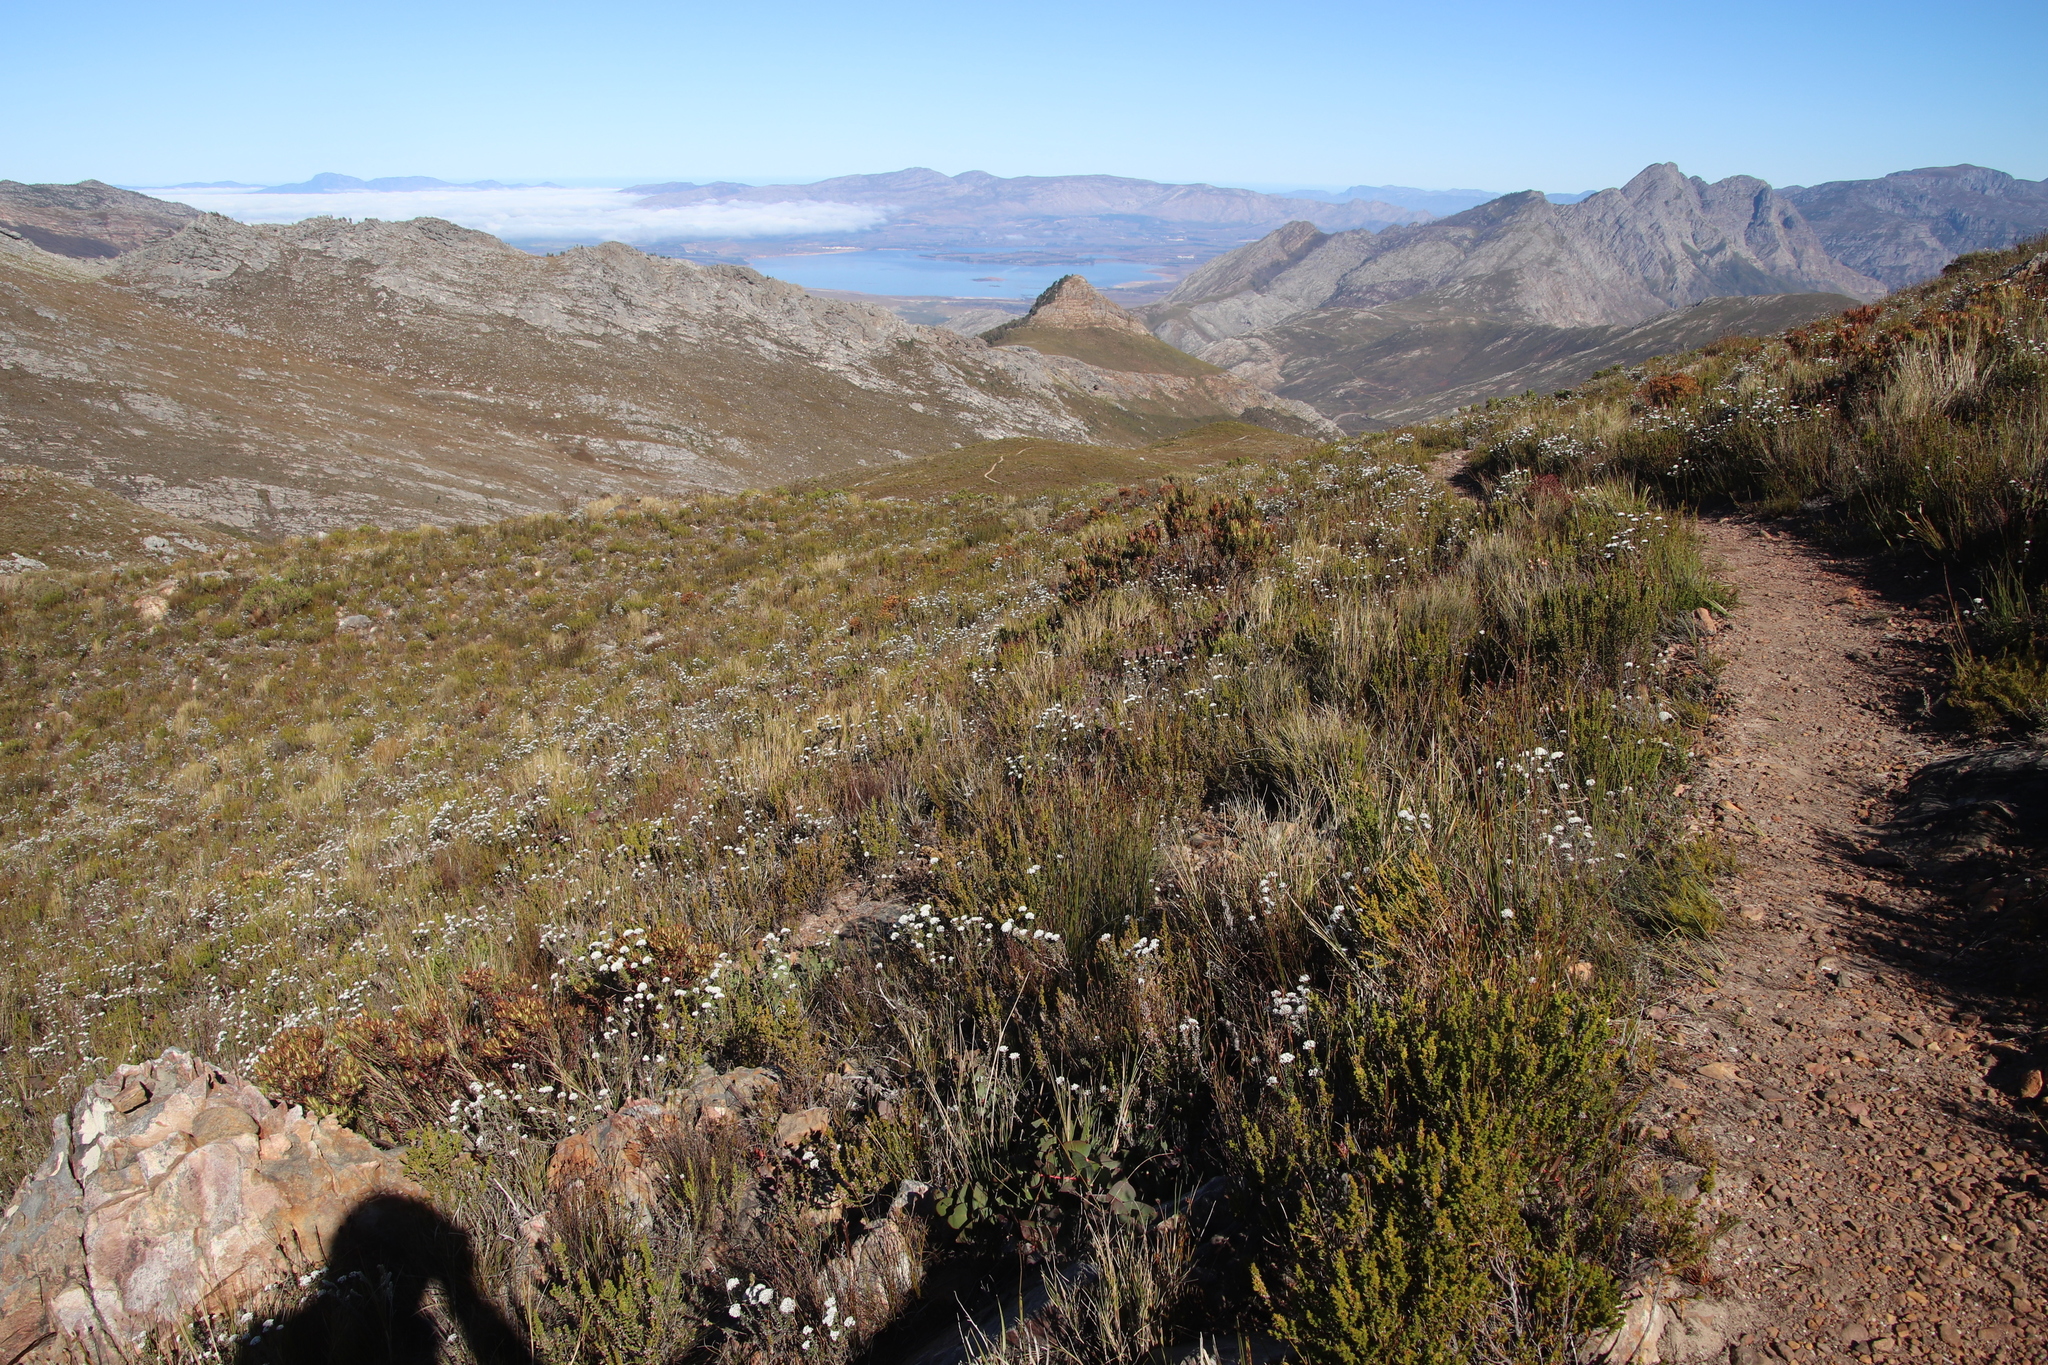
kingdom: Plantae
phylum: Tracheophyta
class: Magnoliopsida
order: Proteales
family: Proteaceae
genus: Leucadendron
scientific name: Leucadendron spissifolium
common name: Spear-leaf conebush
